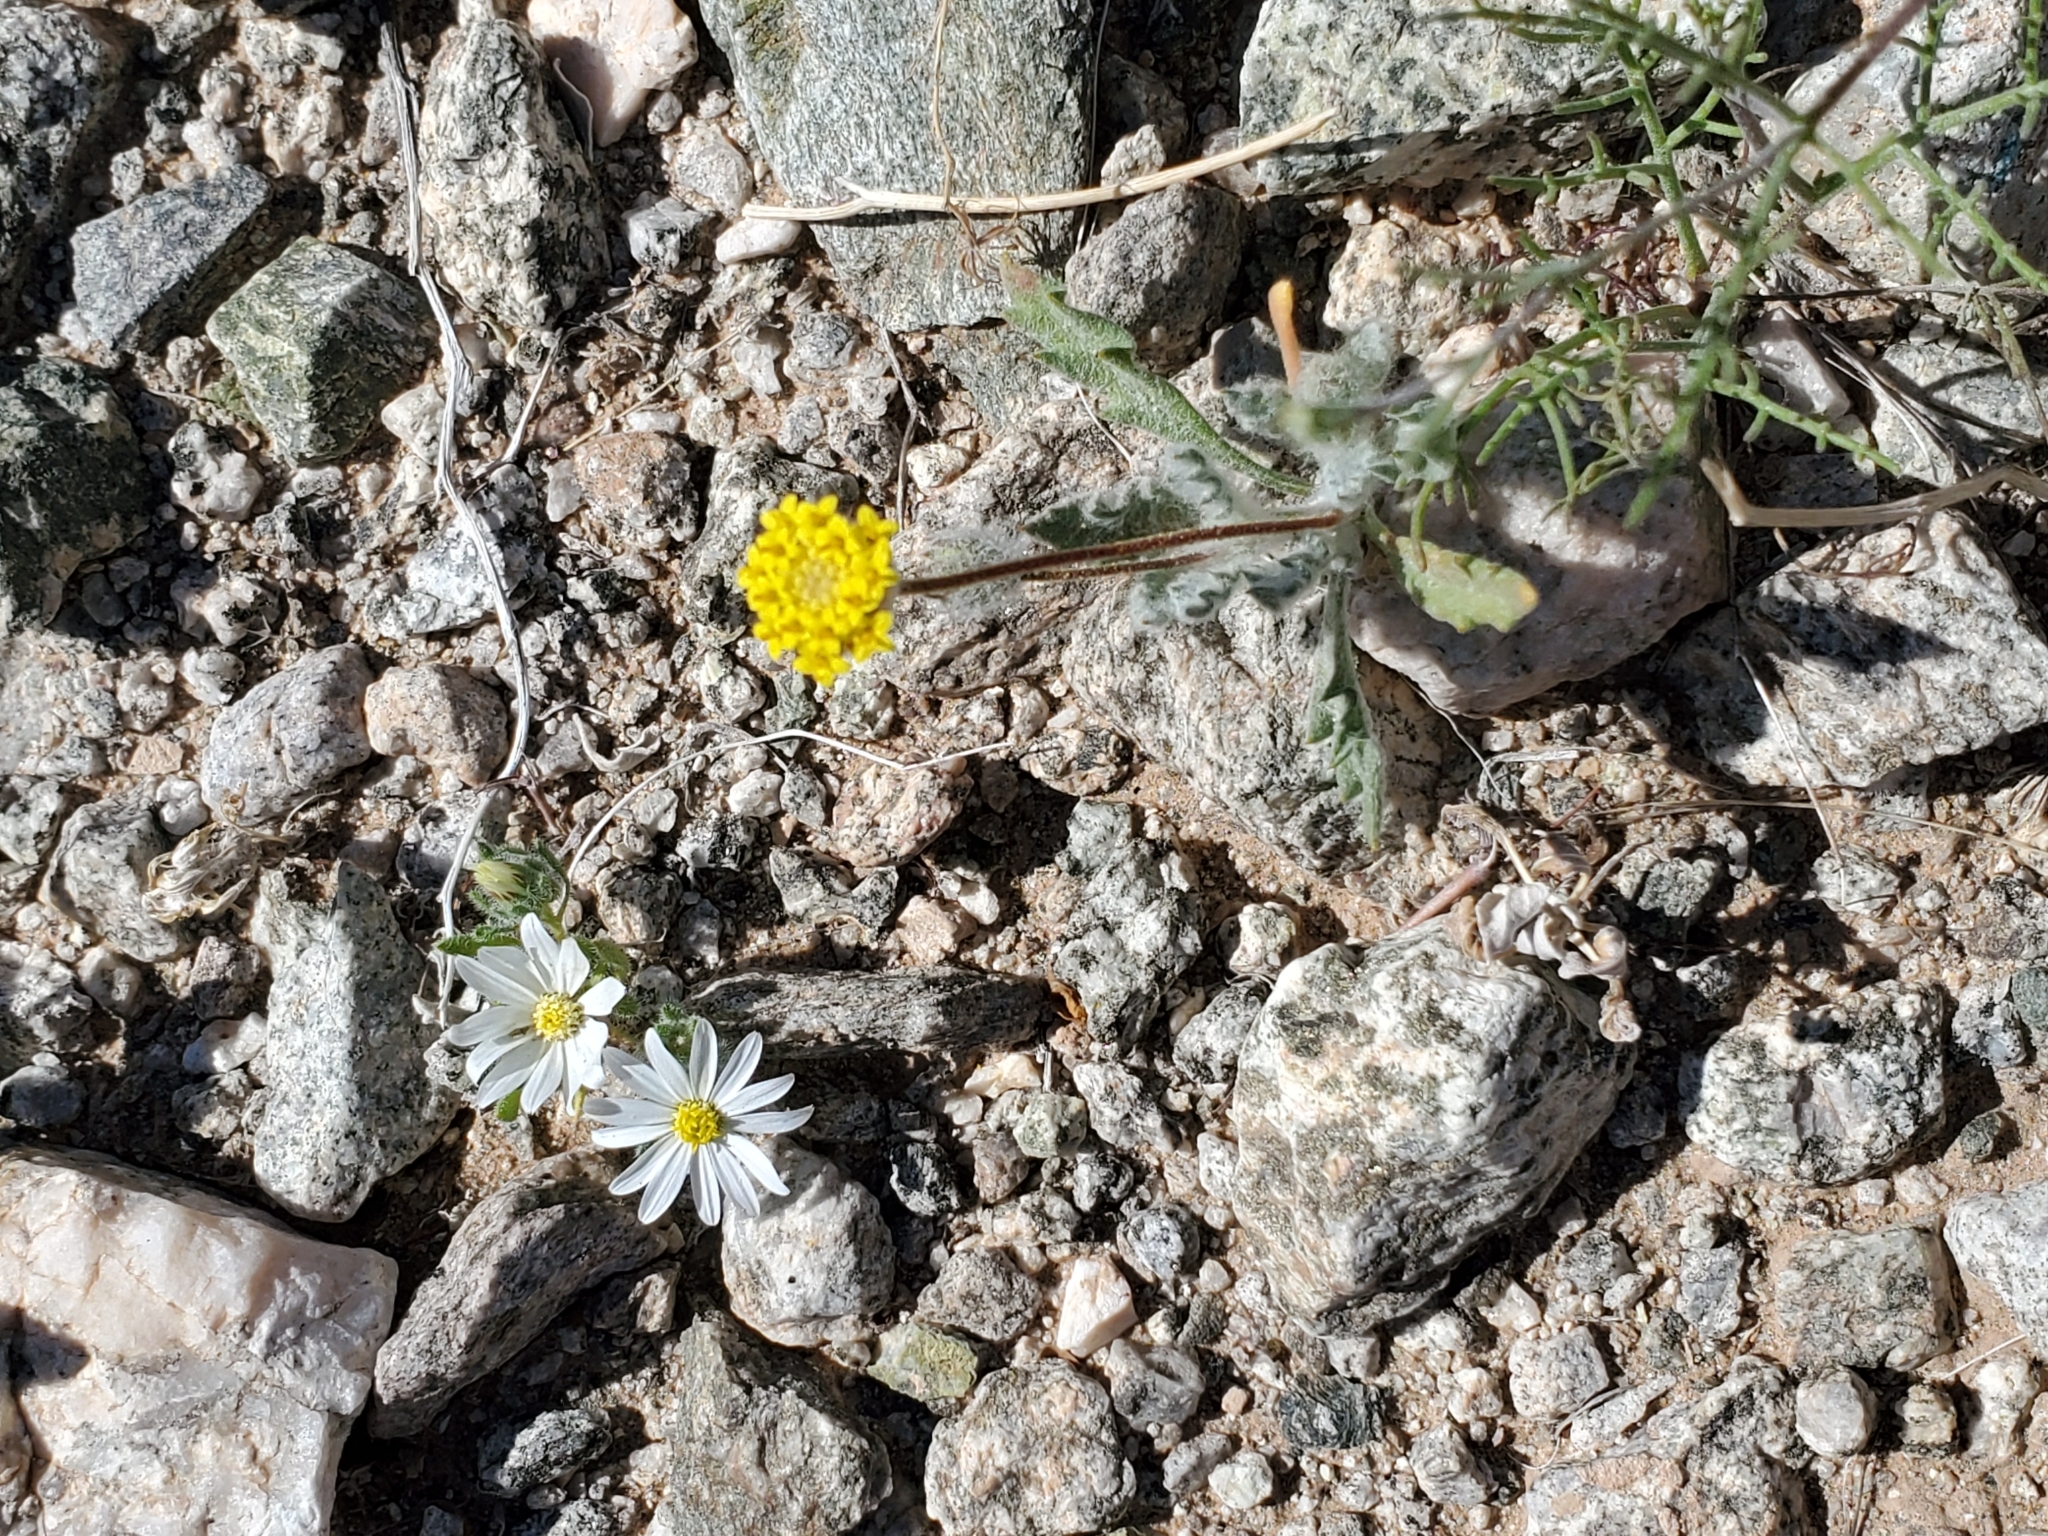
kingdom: Plantae
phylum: Tracheophyta
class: Magnoliopsida
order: Asterales
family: Asteraceae
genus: Trichoptilium
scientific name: Trichoptilium incisum
